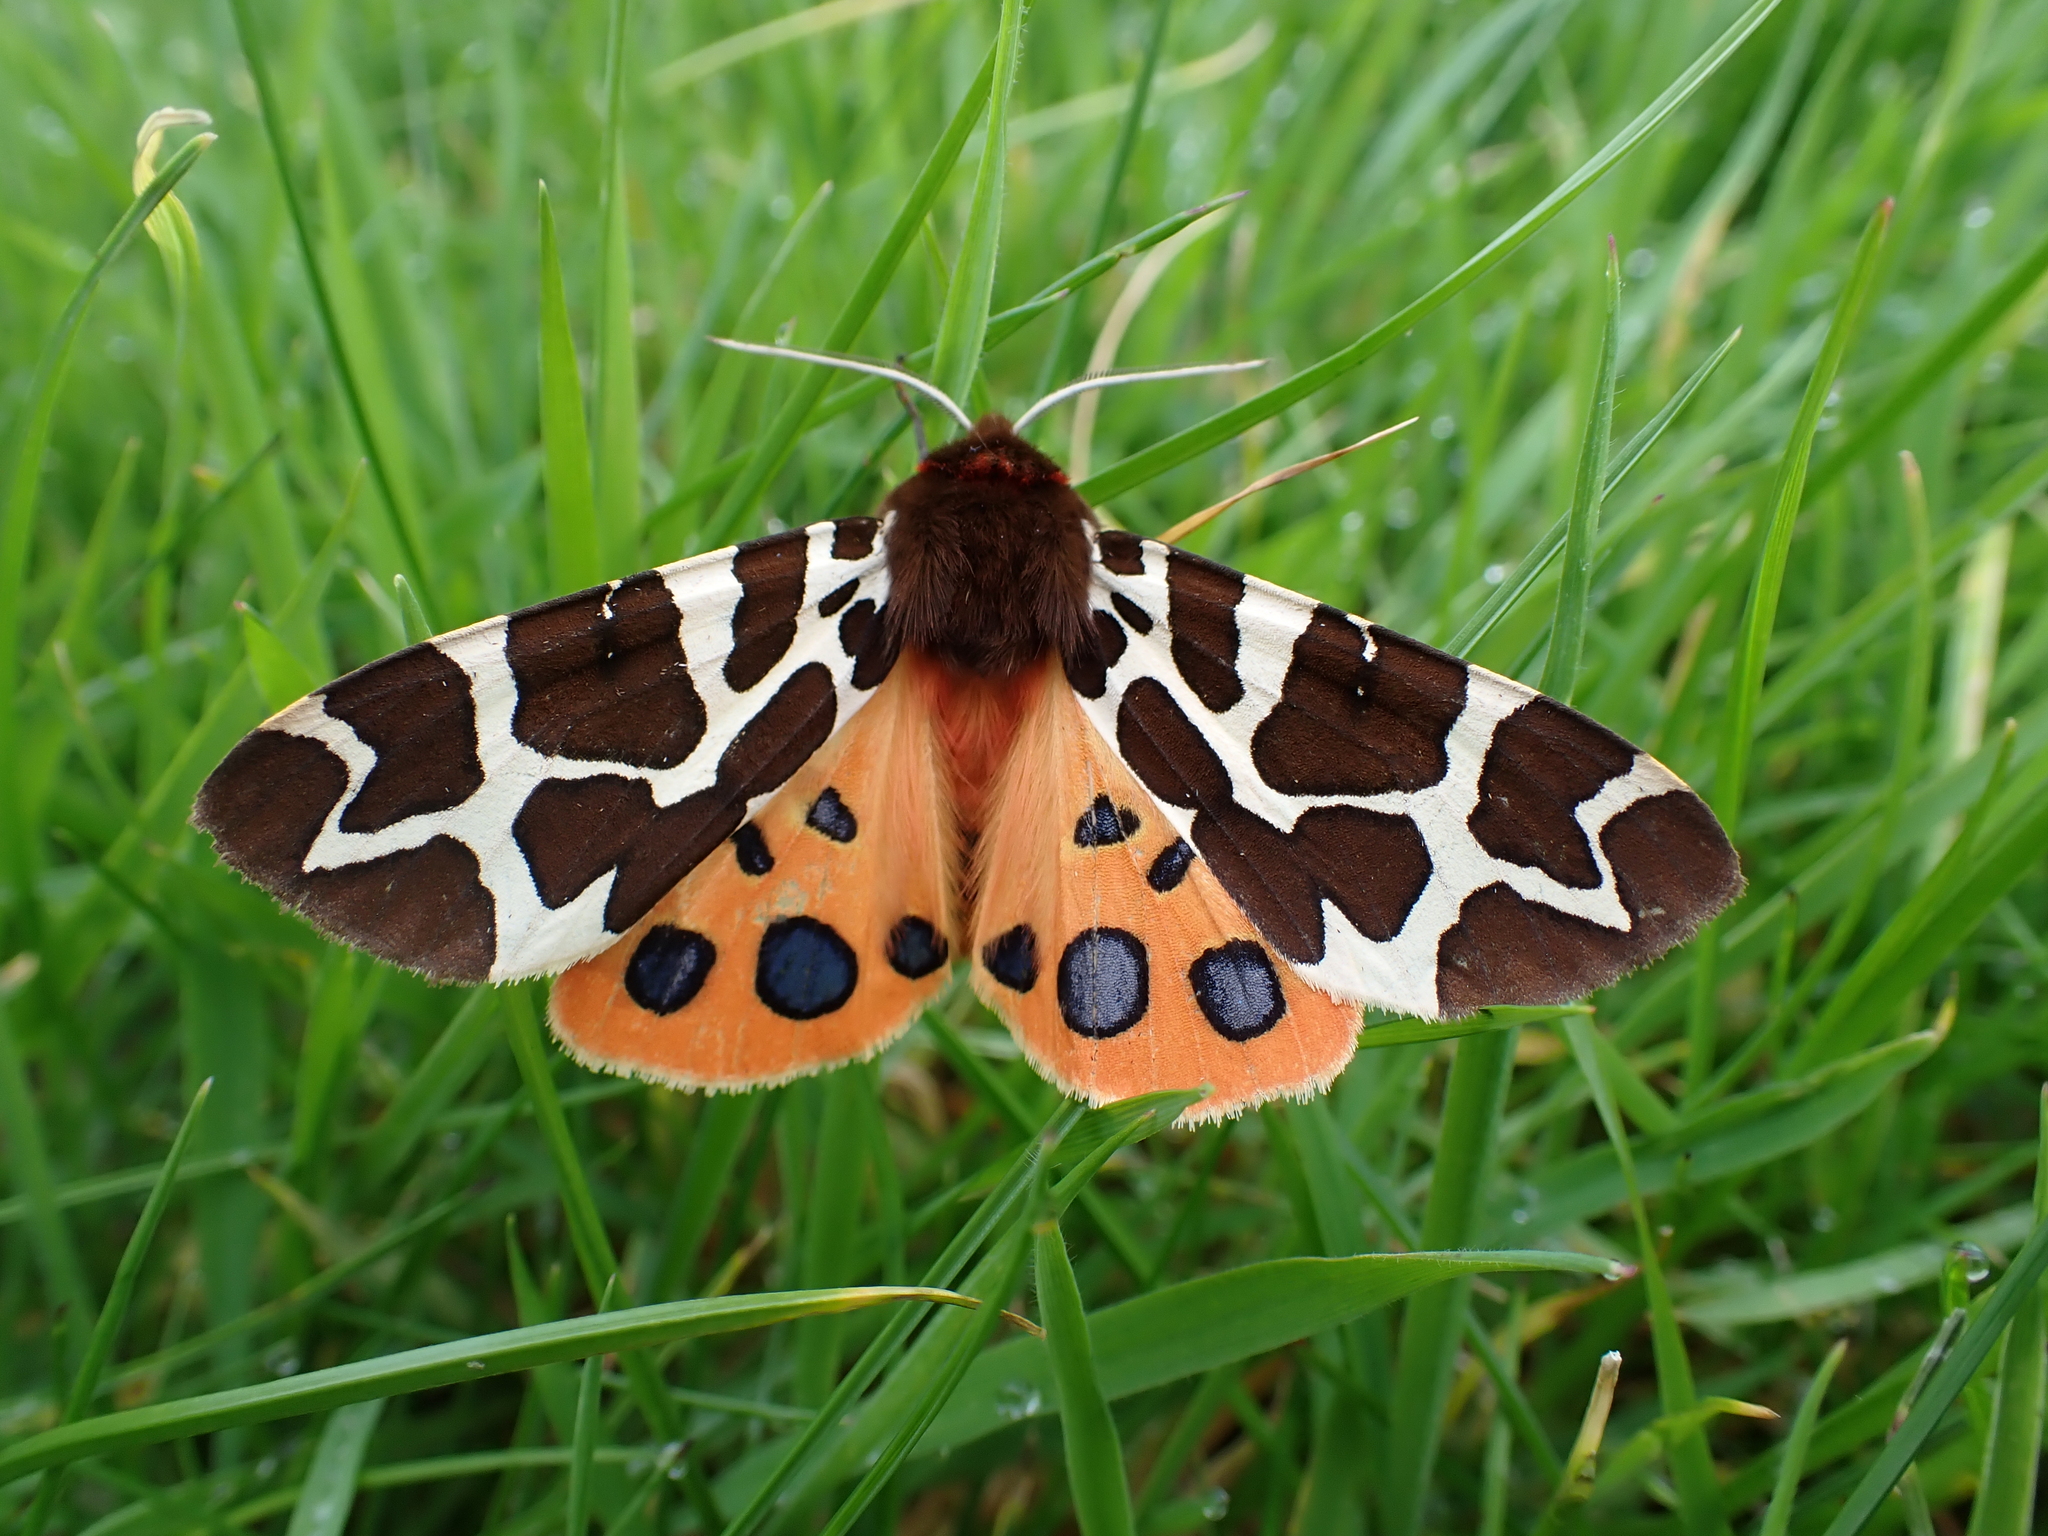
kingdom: Animalia
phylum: Arthropoda
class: Insecta
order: Lepidoptera
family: Erebidae
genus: Arctia
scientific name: Arctia caja
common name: Garden tiger
